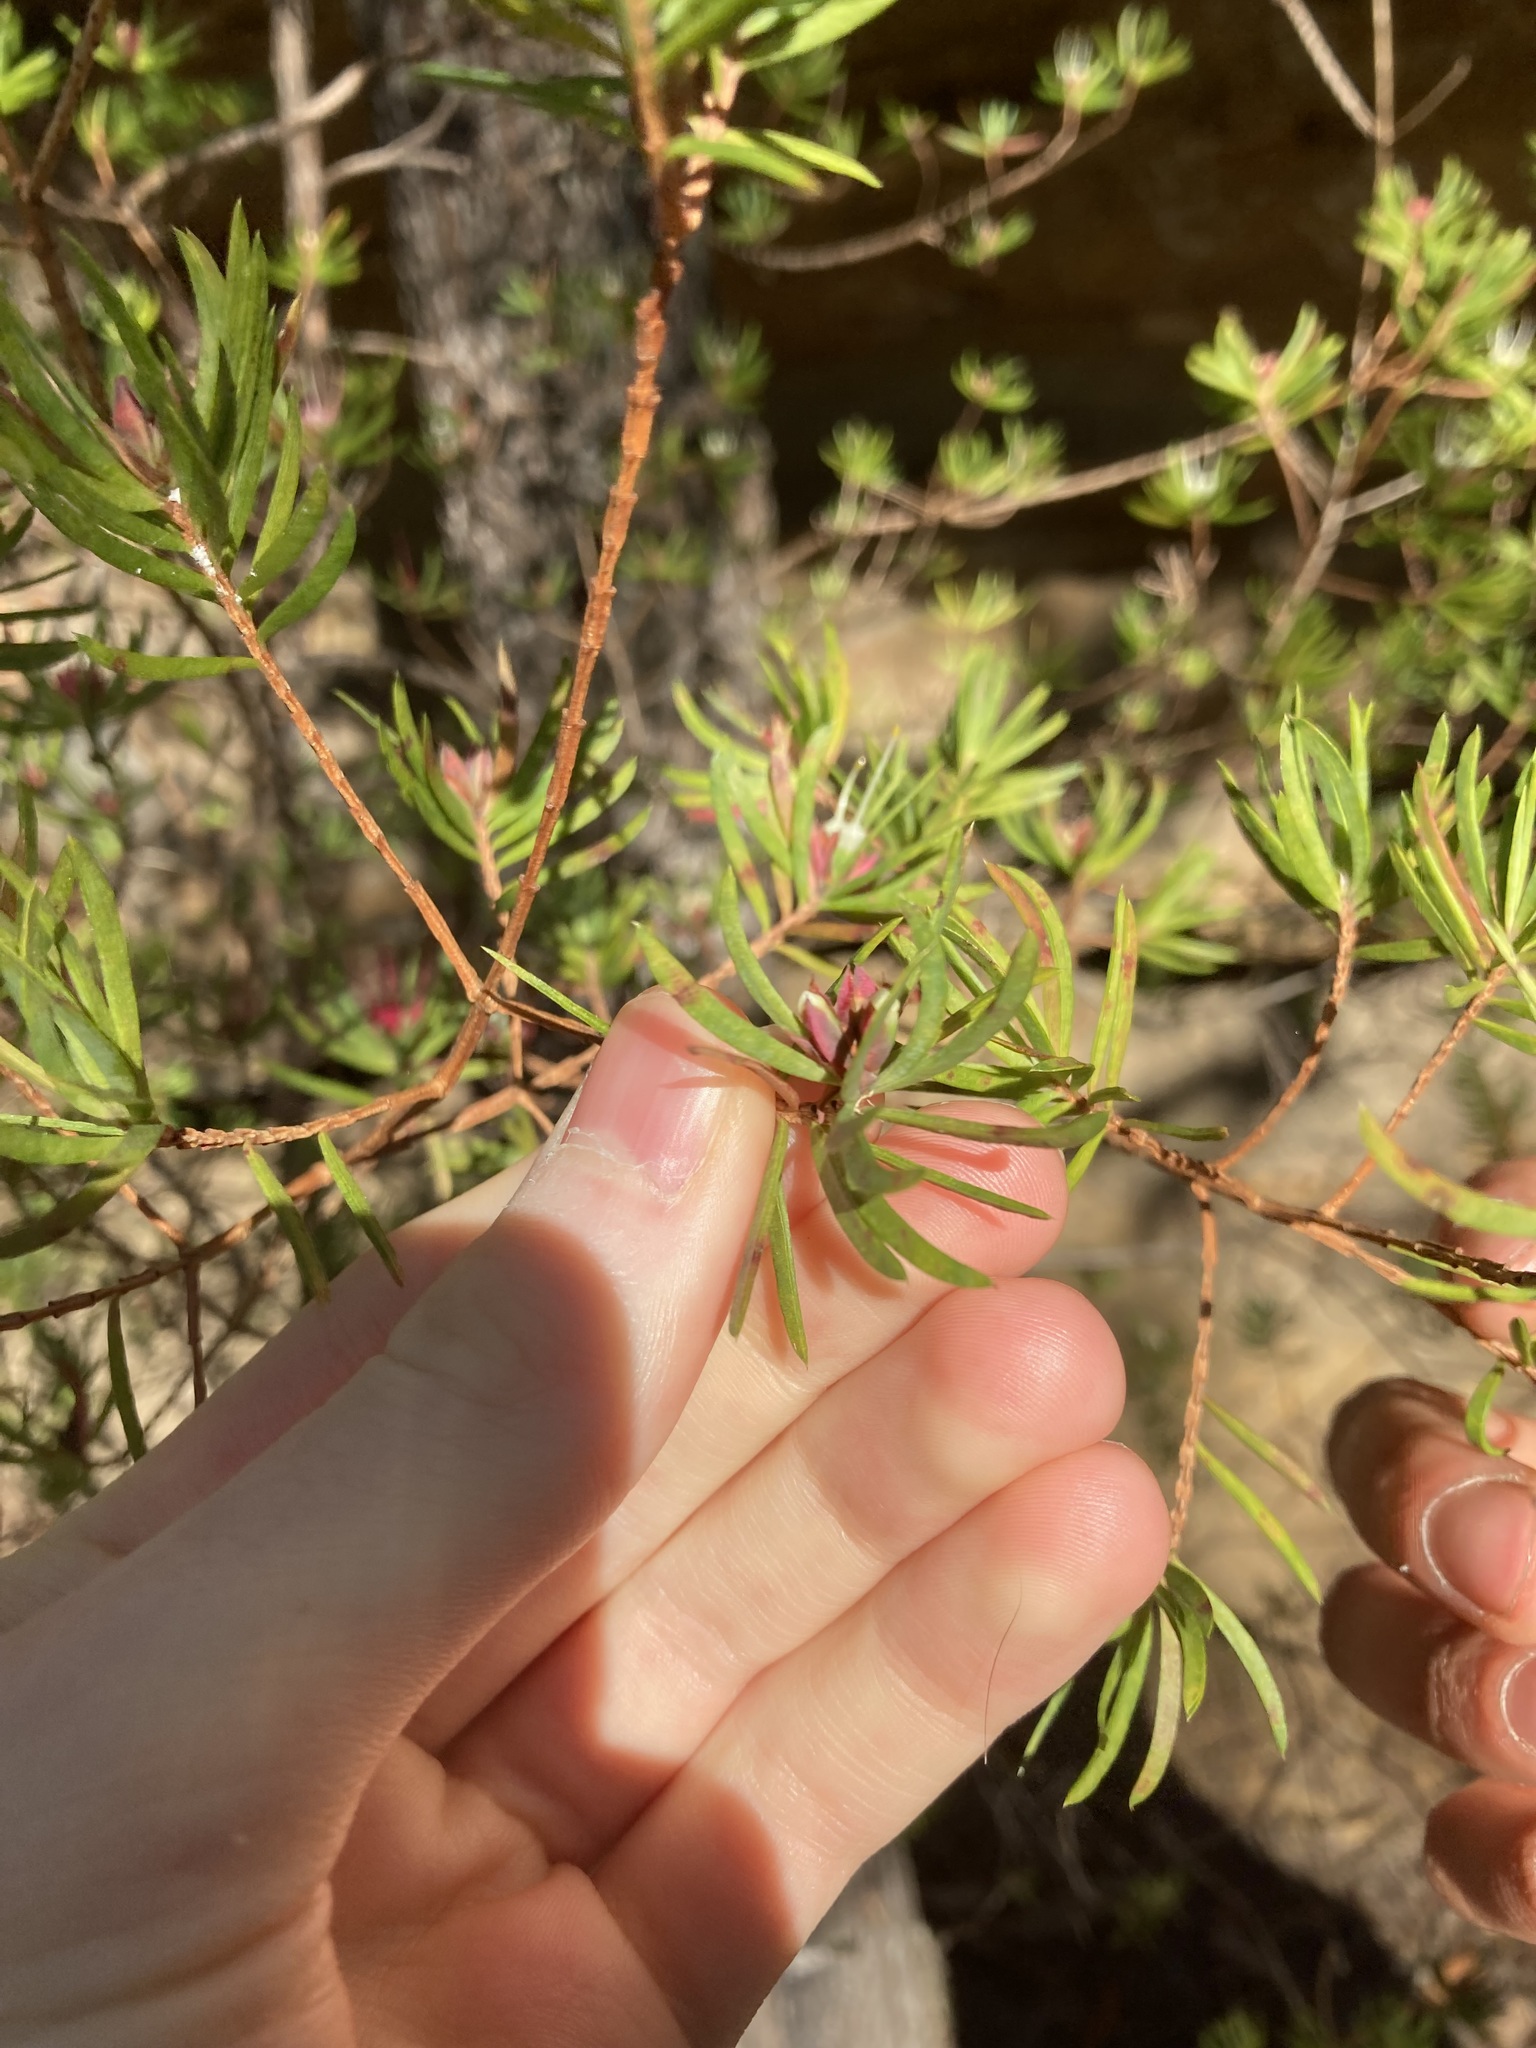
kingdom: Plantae
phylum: Tracheophyta
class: Magnoliopsida
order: Myrtales
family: Myrtaceae
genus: Darwinia
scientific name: Darwinia procera
